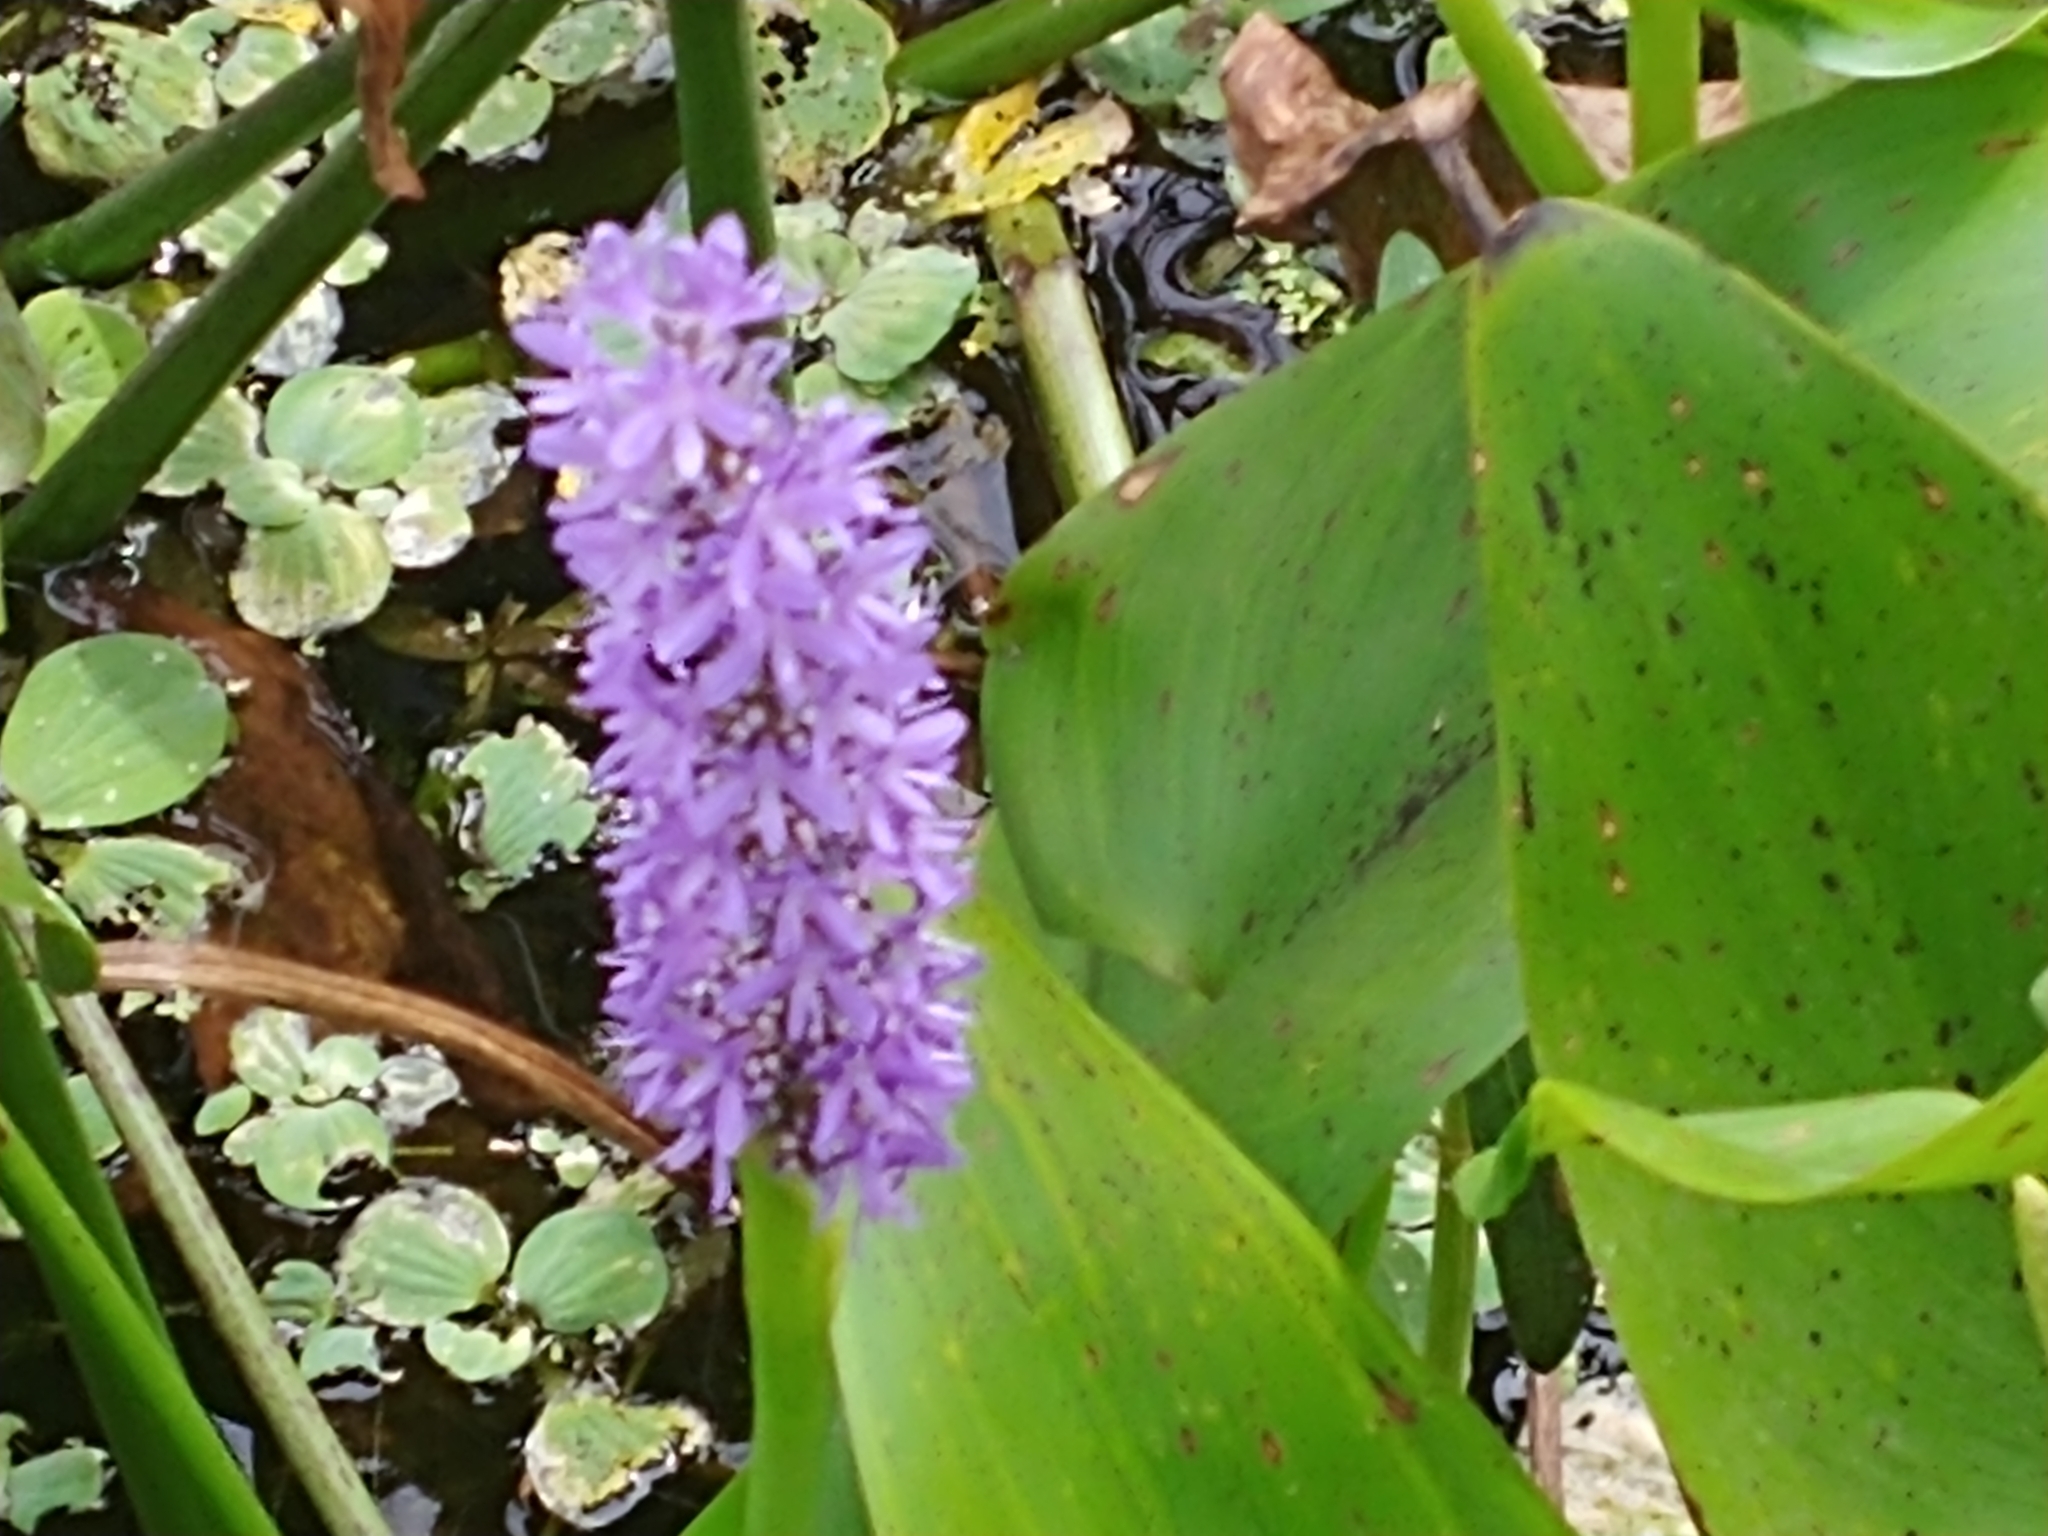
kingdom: Plantae
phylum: Tracheophyta
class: Liliopsida
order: Commelinales
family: Pontederiaceae
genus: Pontederia
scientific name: Pontederia cordata
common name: Pickerelweed
